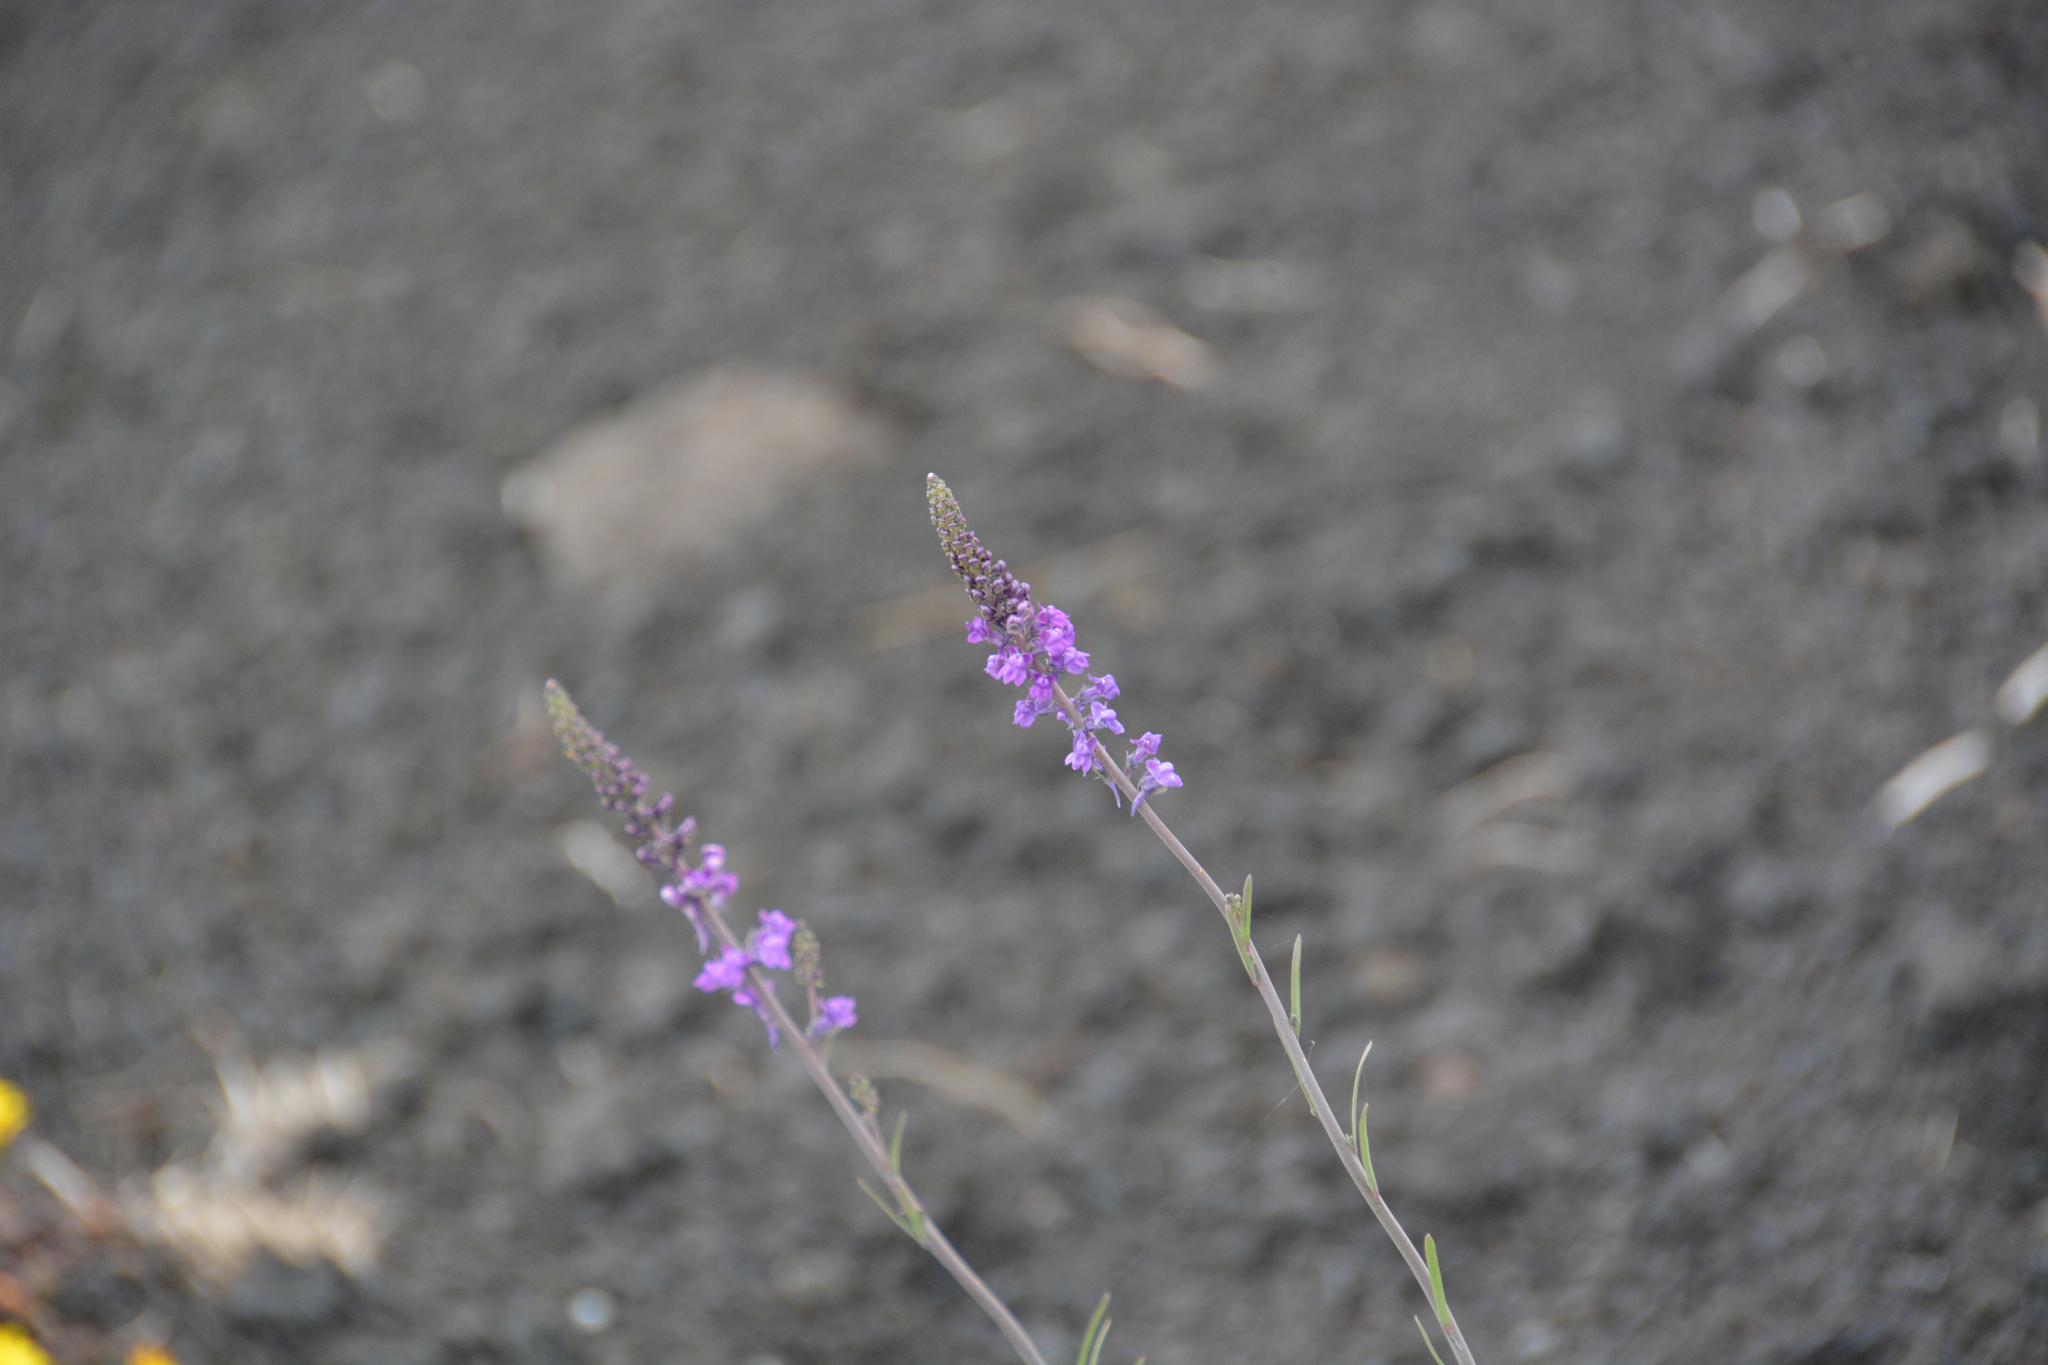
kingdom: Plantae
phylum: Tracheophyta
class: Magnoliopsida
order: Lamiales
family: Plantaginaceae
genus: Linaria
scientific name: Linaria purpurea
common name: Purple toadflax
